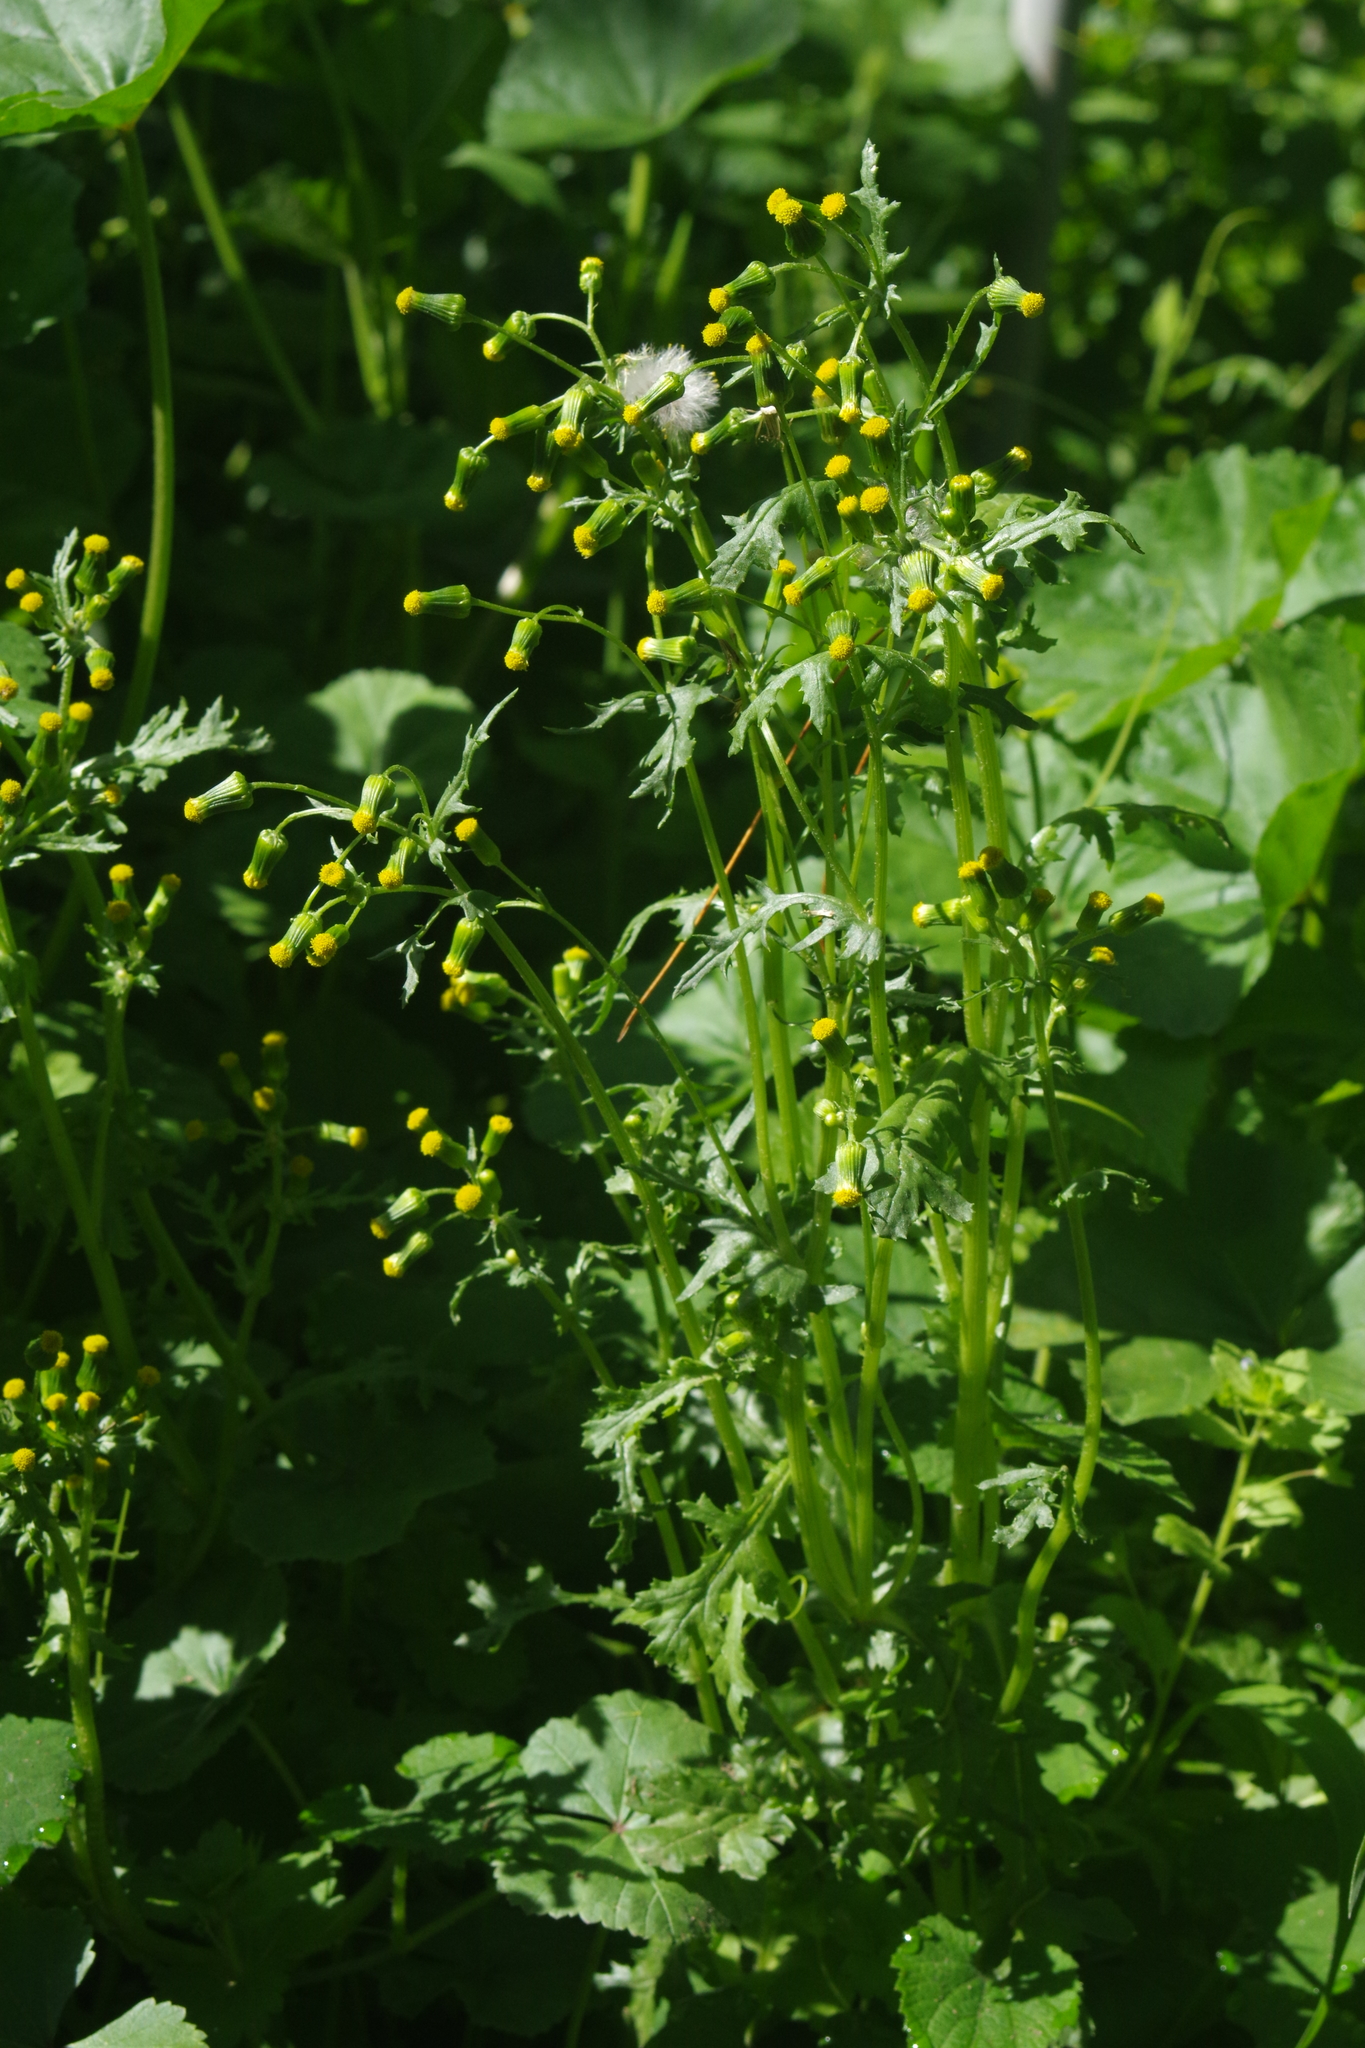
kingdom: Plantae
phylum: Tracheophyta
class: Magnoliopsida
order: Asterales
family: Asteraceae
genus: Senecio
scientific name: Senecio vulgaris
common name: Old-man-in-the-spring
